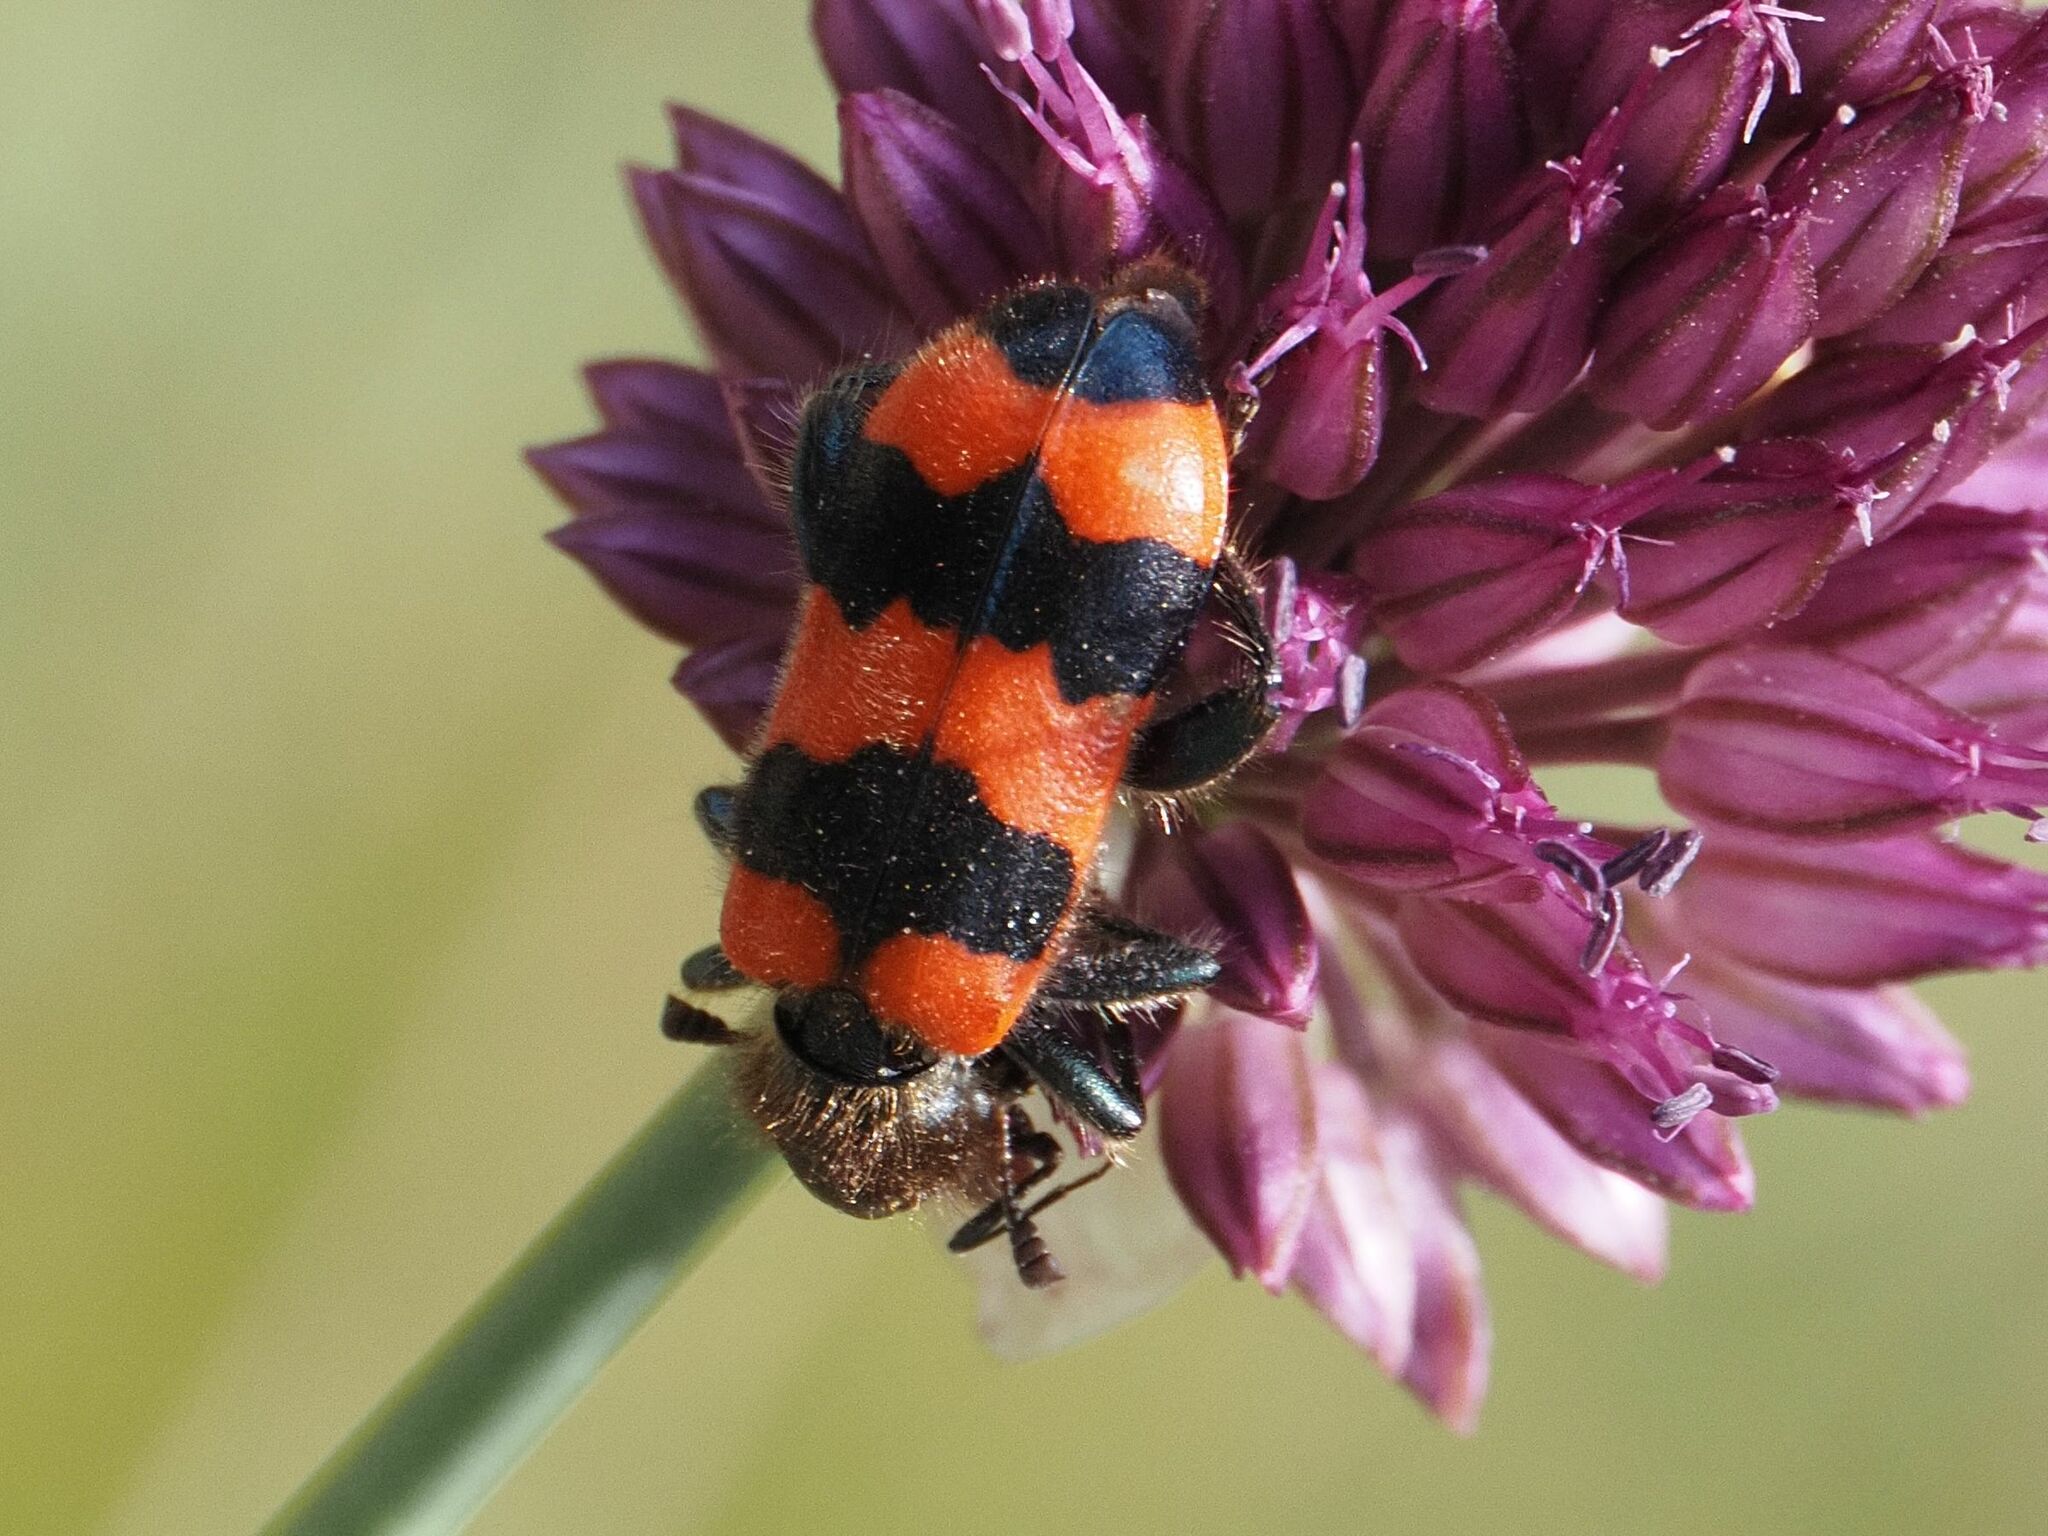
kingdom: Animalia
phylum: Arthropoda
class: Insecta
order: Coleoptera
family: Cleridae
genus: Trichodes
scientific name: Trichodes apiarius
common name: Bee-eating beetle
